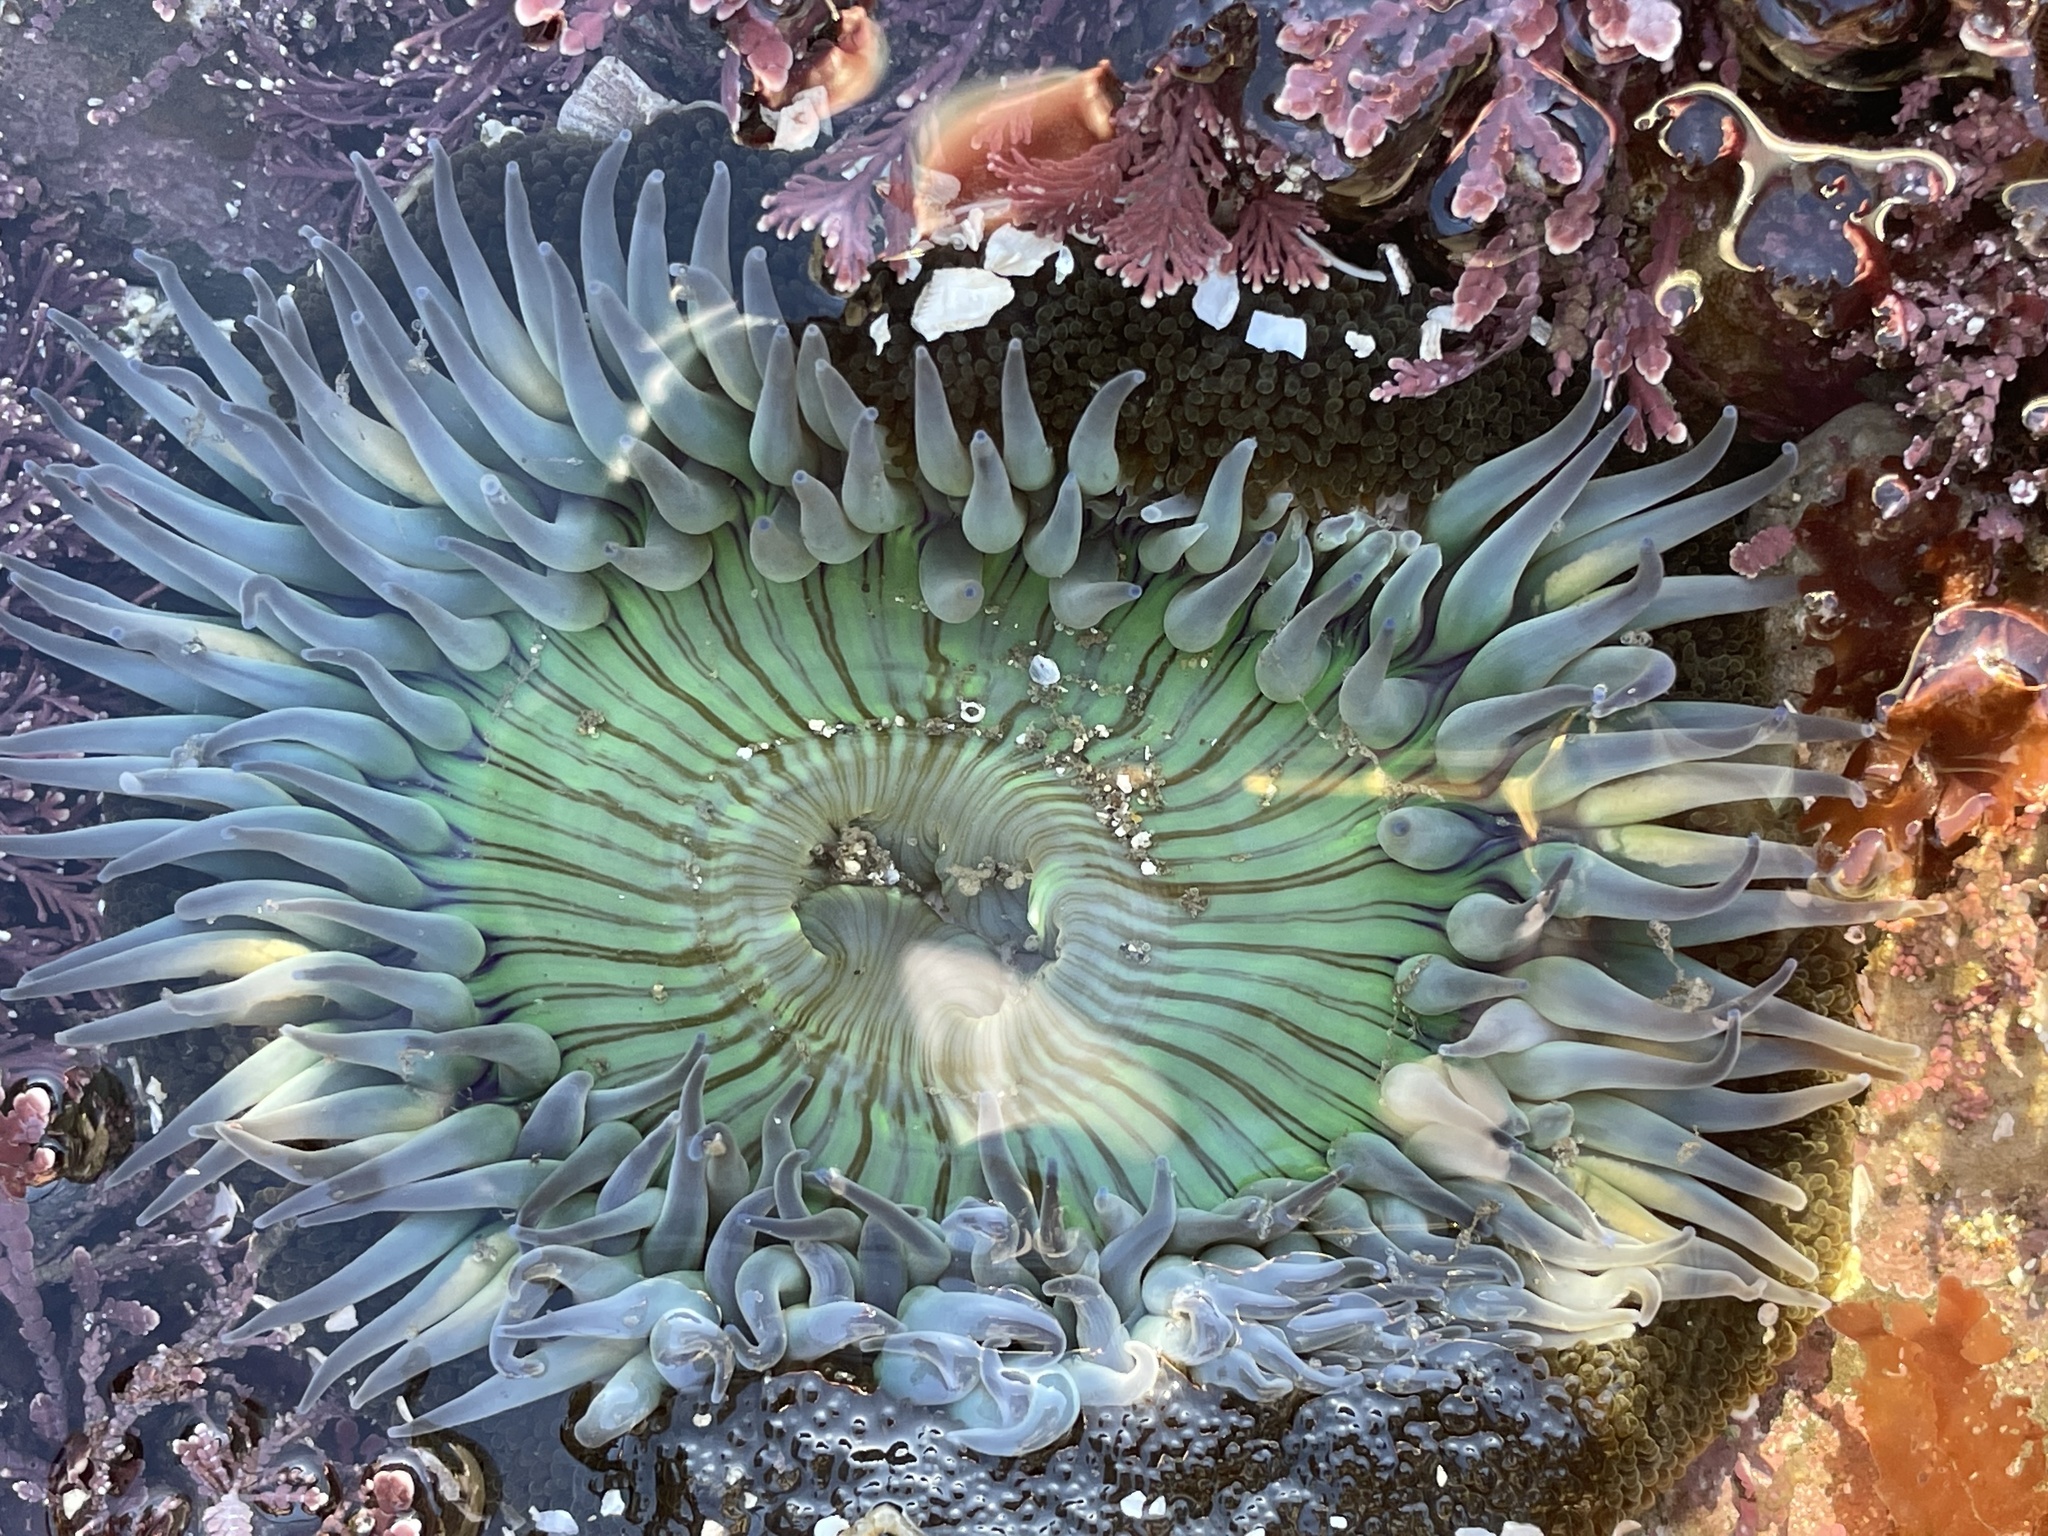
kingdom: Animalia
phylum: Cnidaria
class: Anthozoa
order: Actiniaria
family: Actiniidae
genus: Anthopleura
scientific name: Anthopleura sola
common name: Sun anemone
